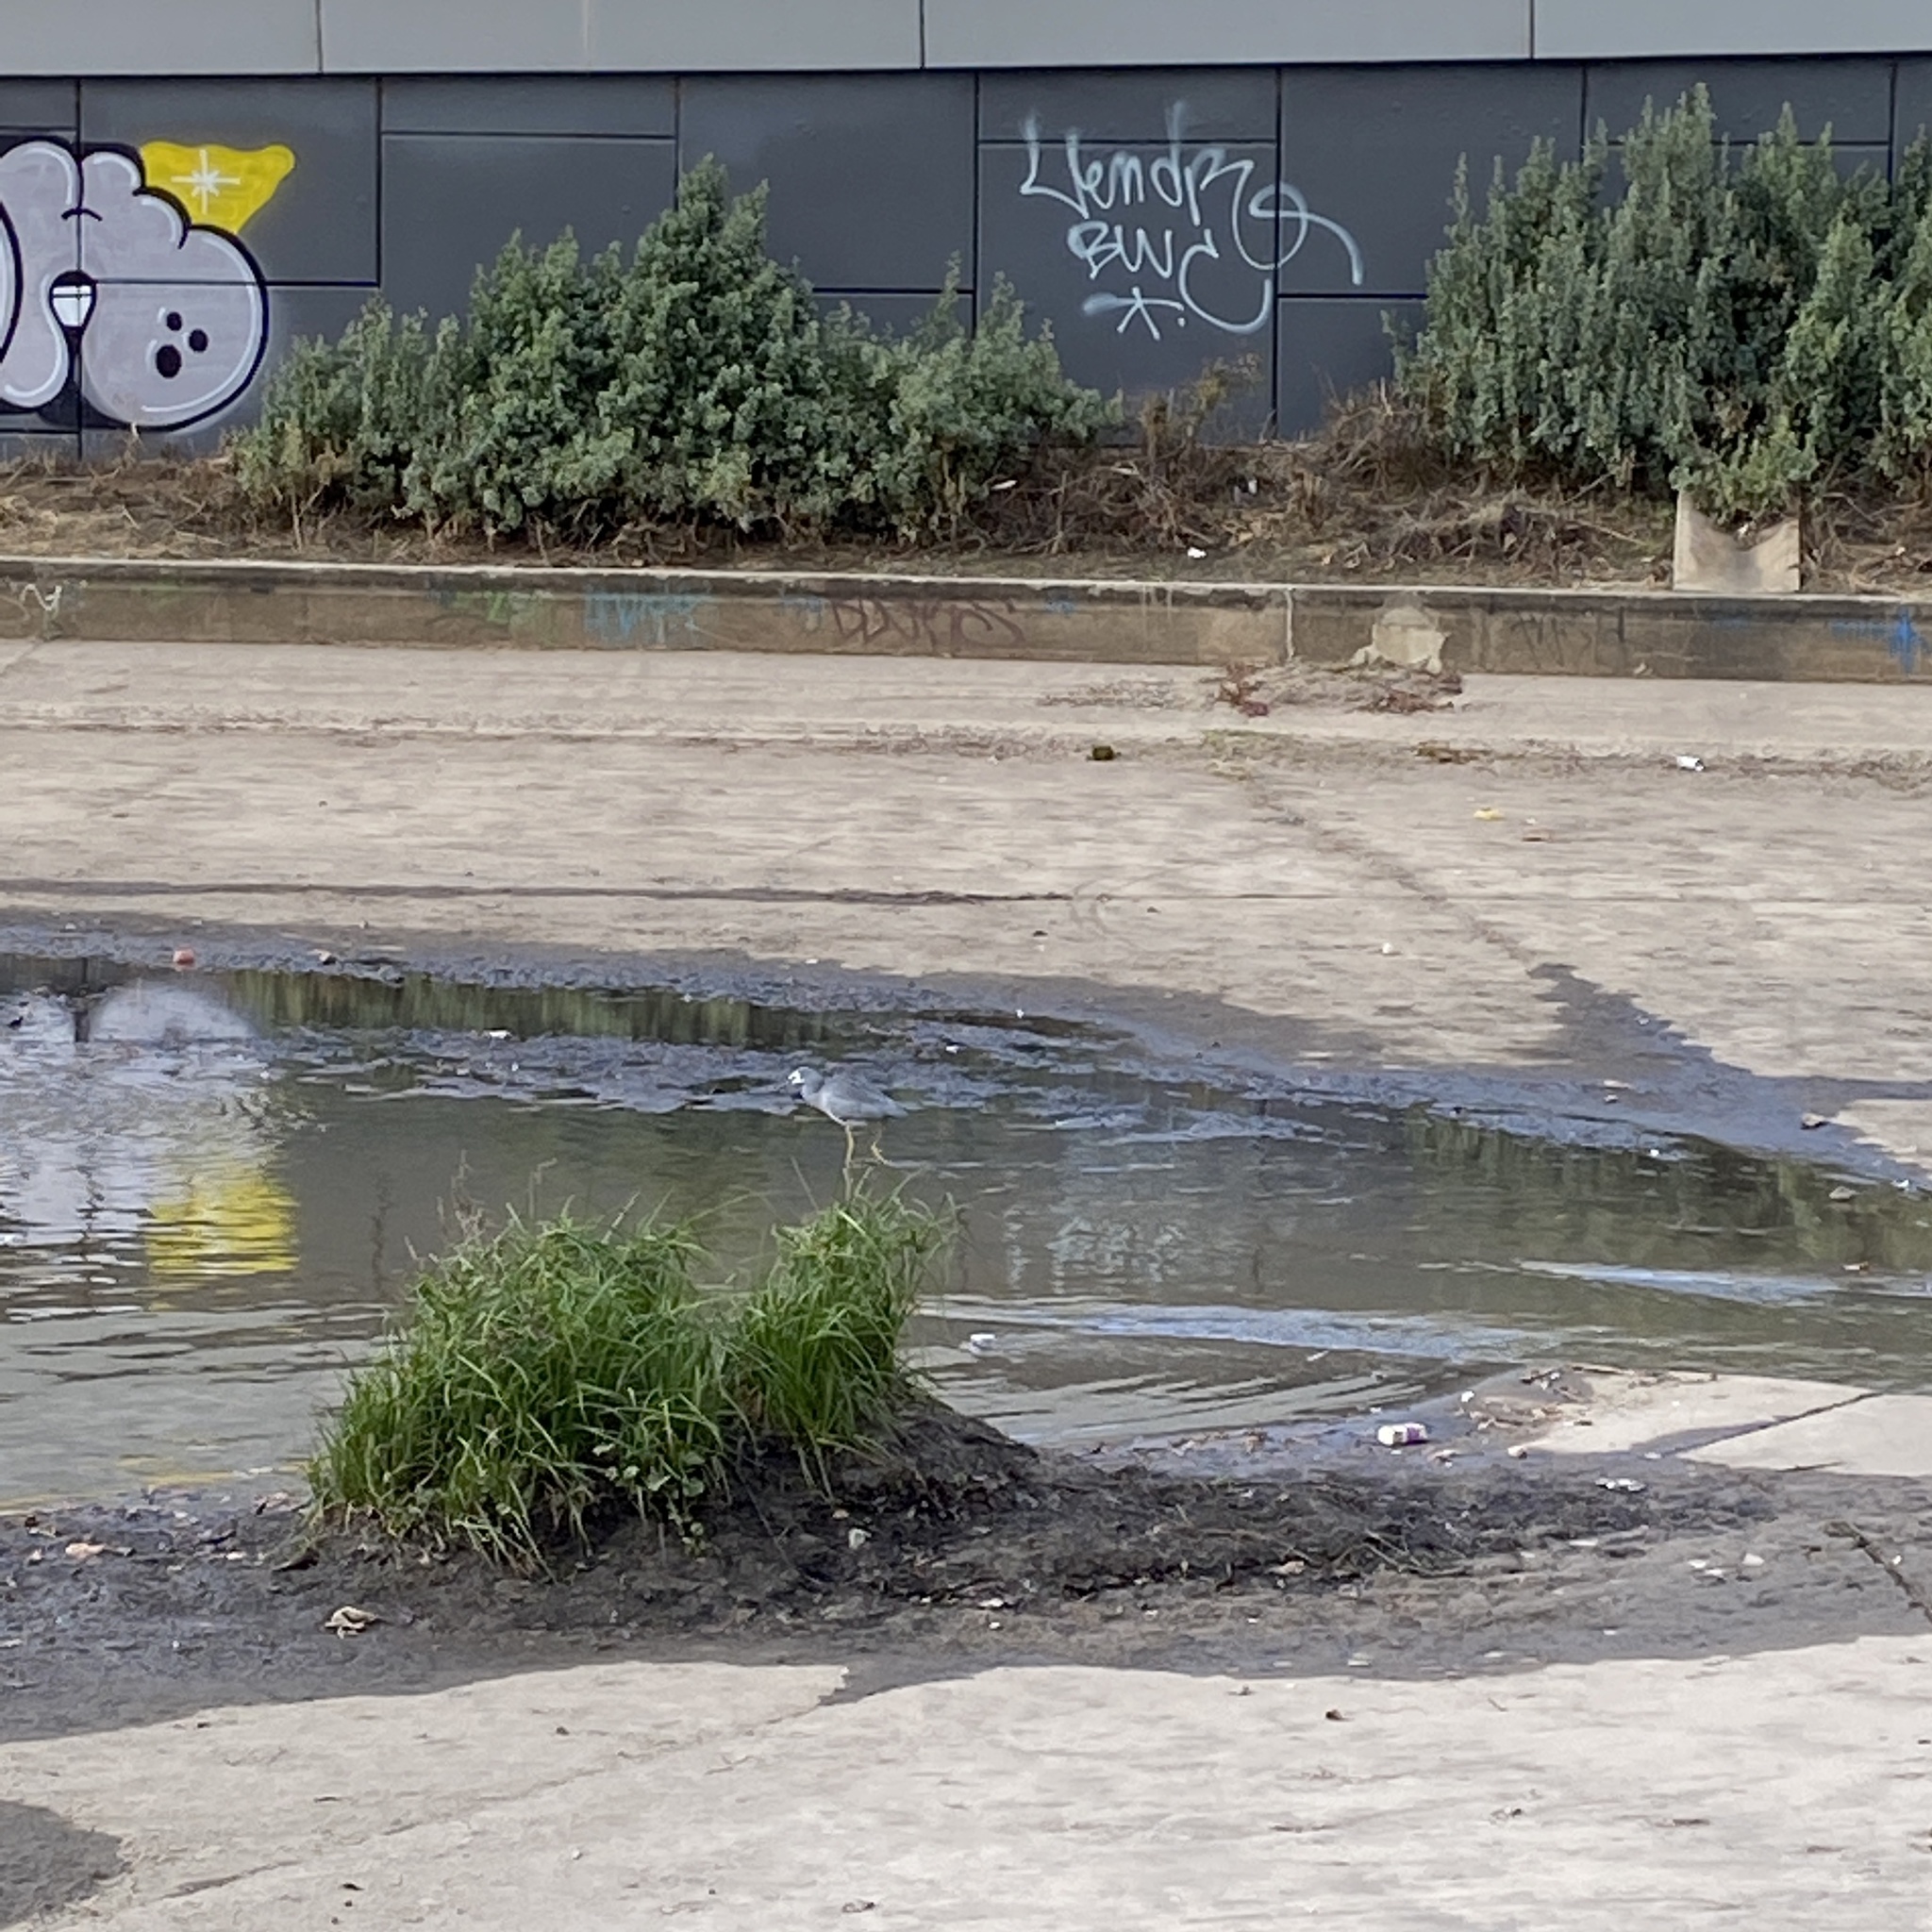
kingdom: Animalia
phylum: Chordata
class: Aves
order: Pelecaniformes
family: Ardeidae
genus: Egretta
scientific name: Egretta novaehollandiae
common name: White-faced heron
